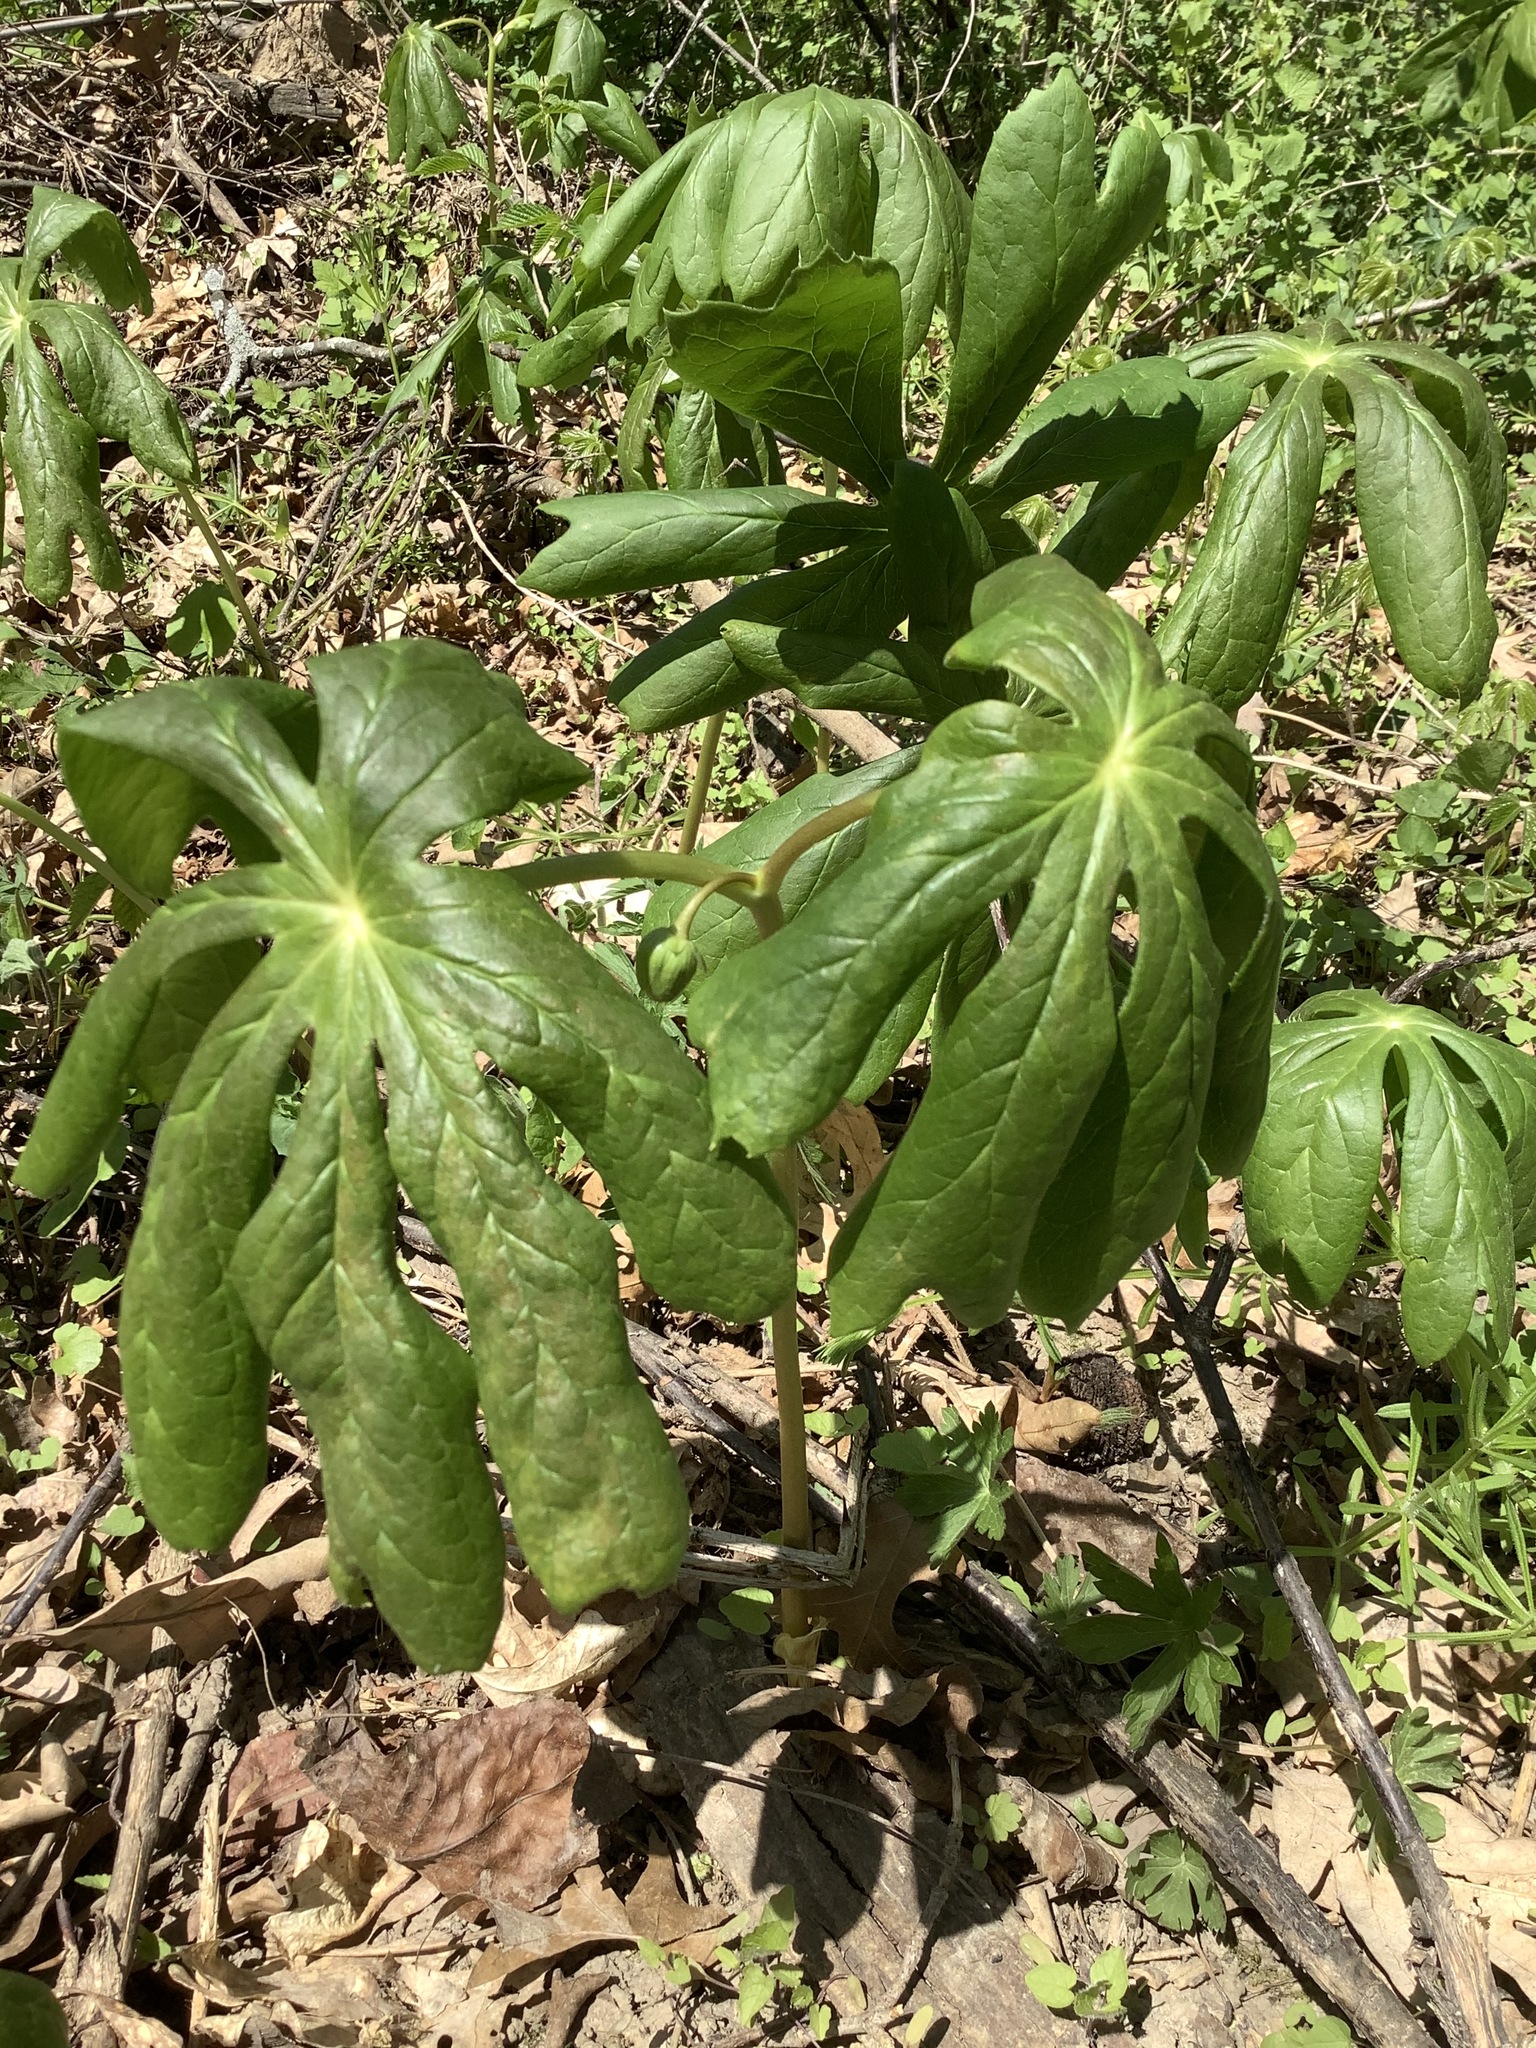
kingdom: Plantae
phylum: Tracheophyta
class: Magnoliopsida
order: Ranunculales
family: Berberidaceae
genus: Podophyllum
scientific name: Podophyllum peltatum
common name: Wild mandrake
